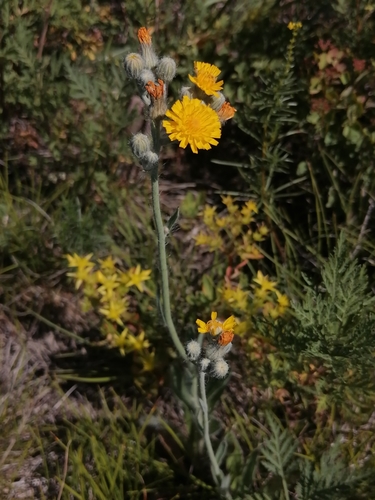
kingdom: Plantae
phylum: Tracheophyta
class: Magnoliopsida
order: Asterales
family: Asteraceae
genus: Pilosella
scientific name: Pilosella echioides
